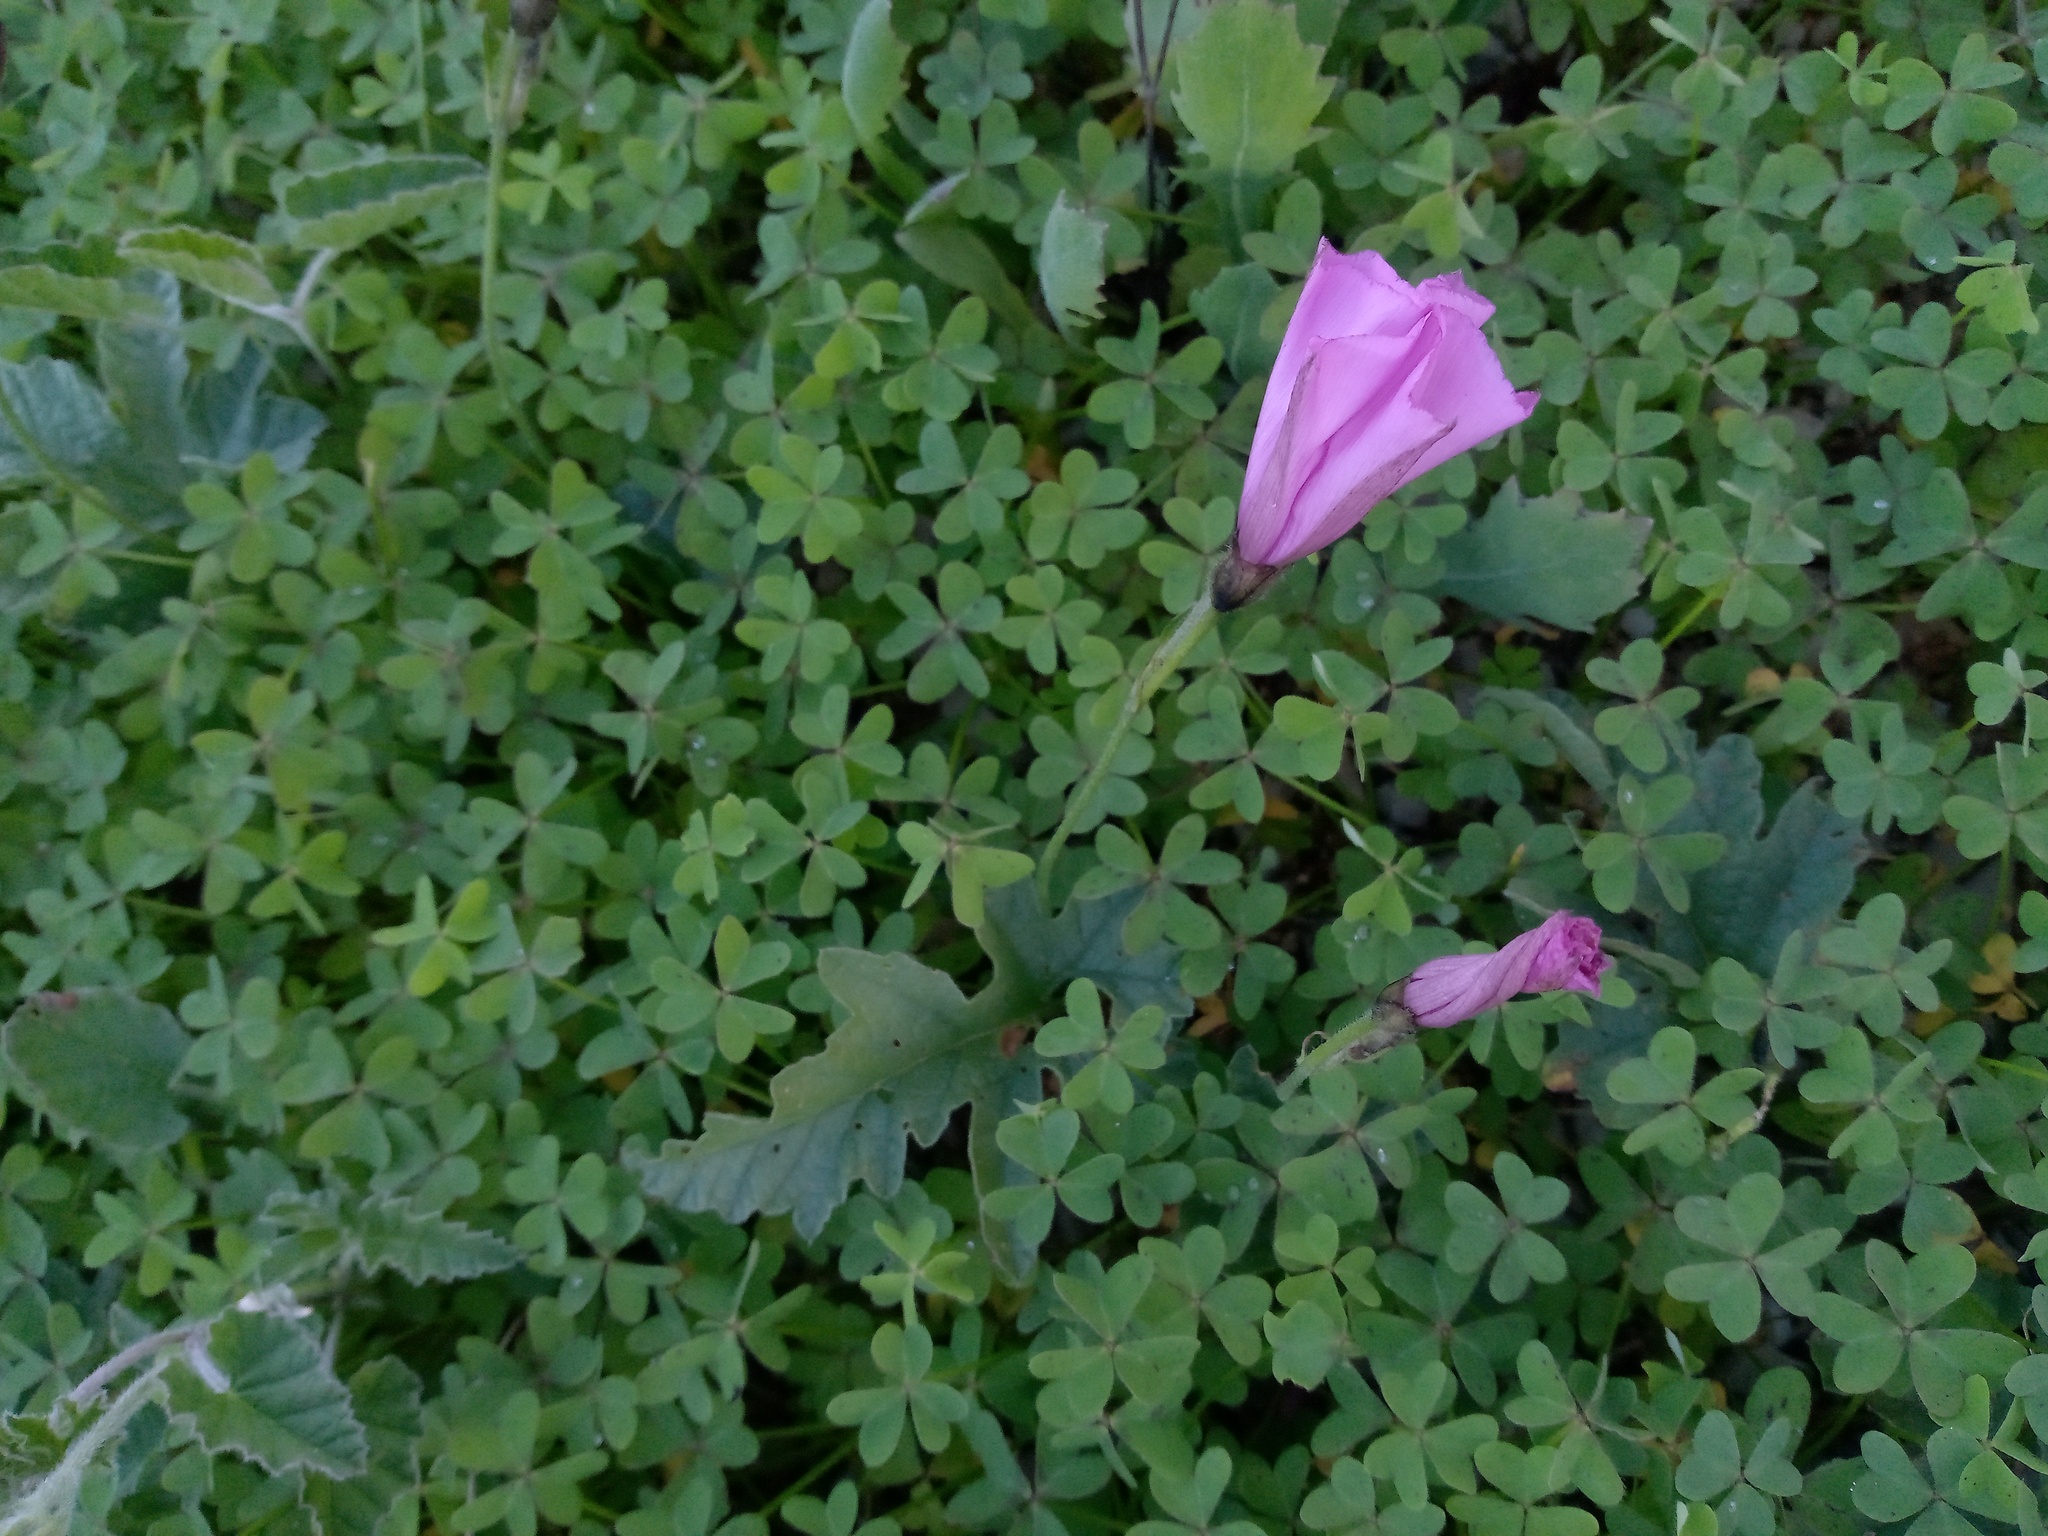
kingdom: Plantae
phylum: Tracheophyta
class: Magnoliopsida
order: Solanales
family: Convolvulaceae
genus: Convolvulus
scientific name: Convolvulus althaeoides
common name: Mallow bindweed
